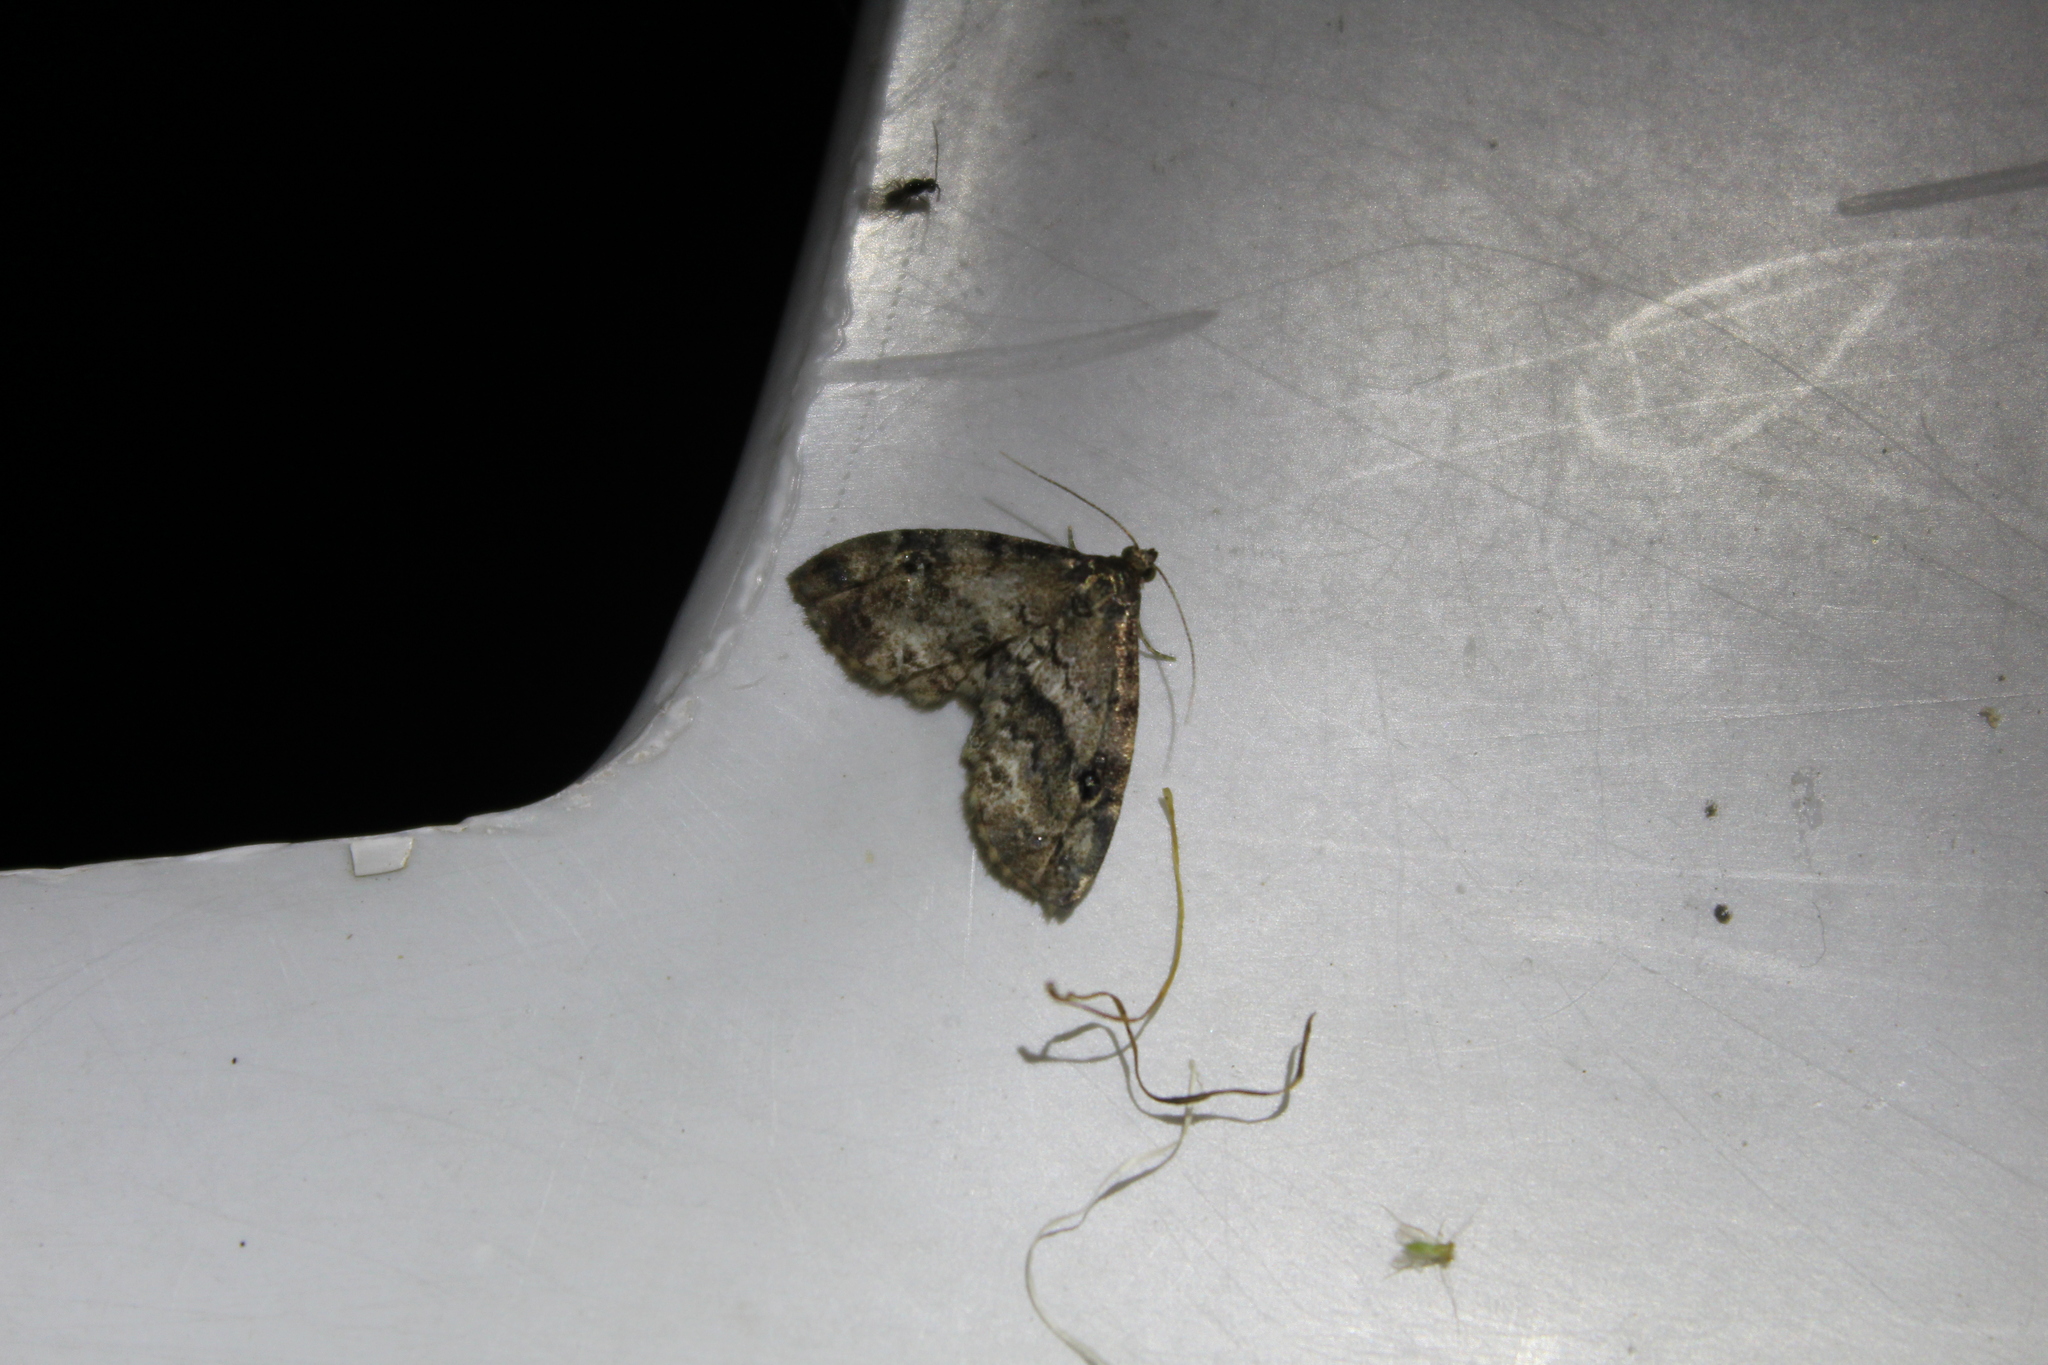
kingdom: Animalia
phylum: Arthropoda
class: Insecta
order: Lepidoptera
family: Erebidae
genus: Melanomma
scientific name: Melanomma auricinctaria
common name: Gold-lined melanomma moth
